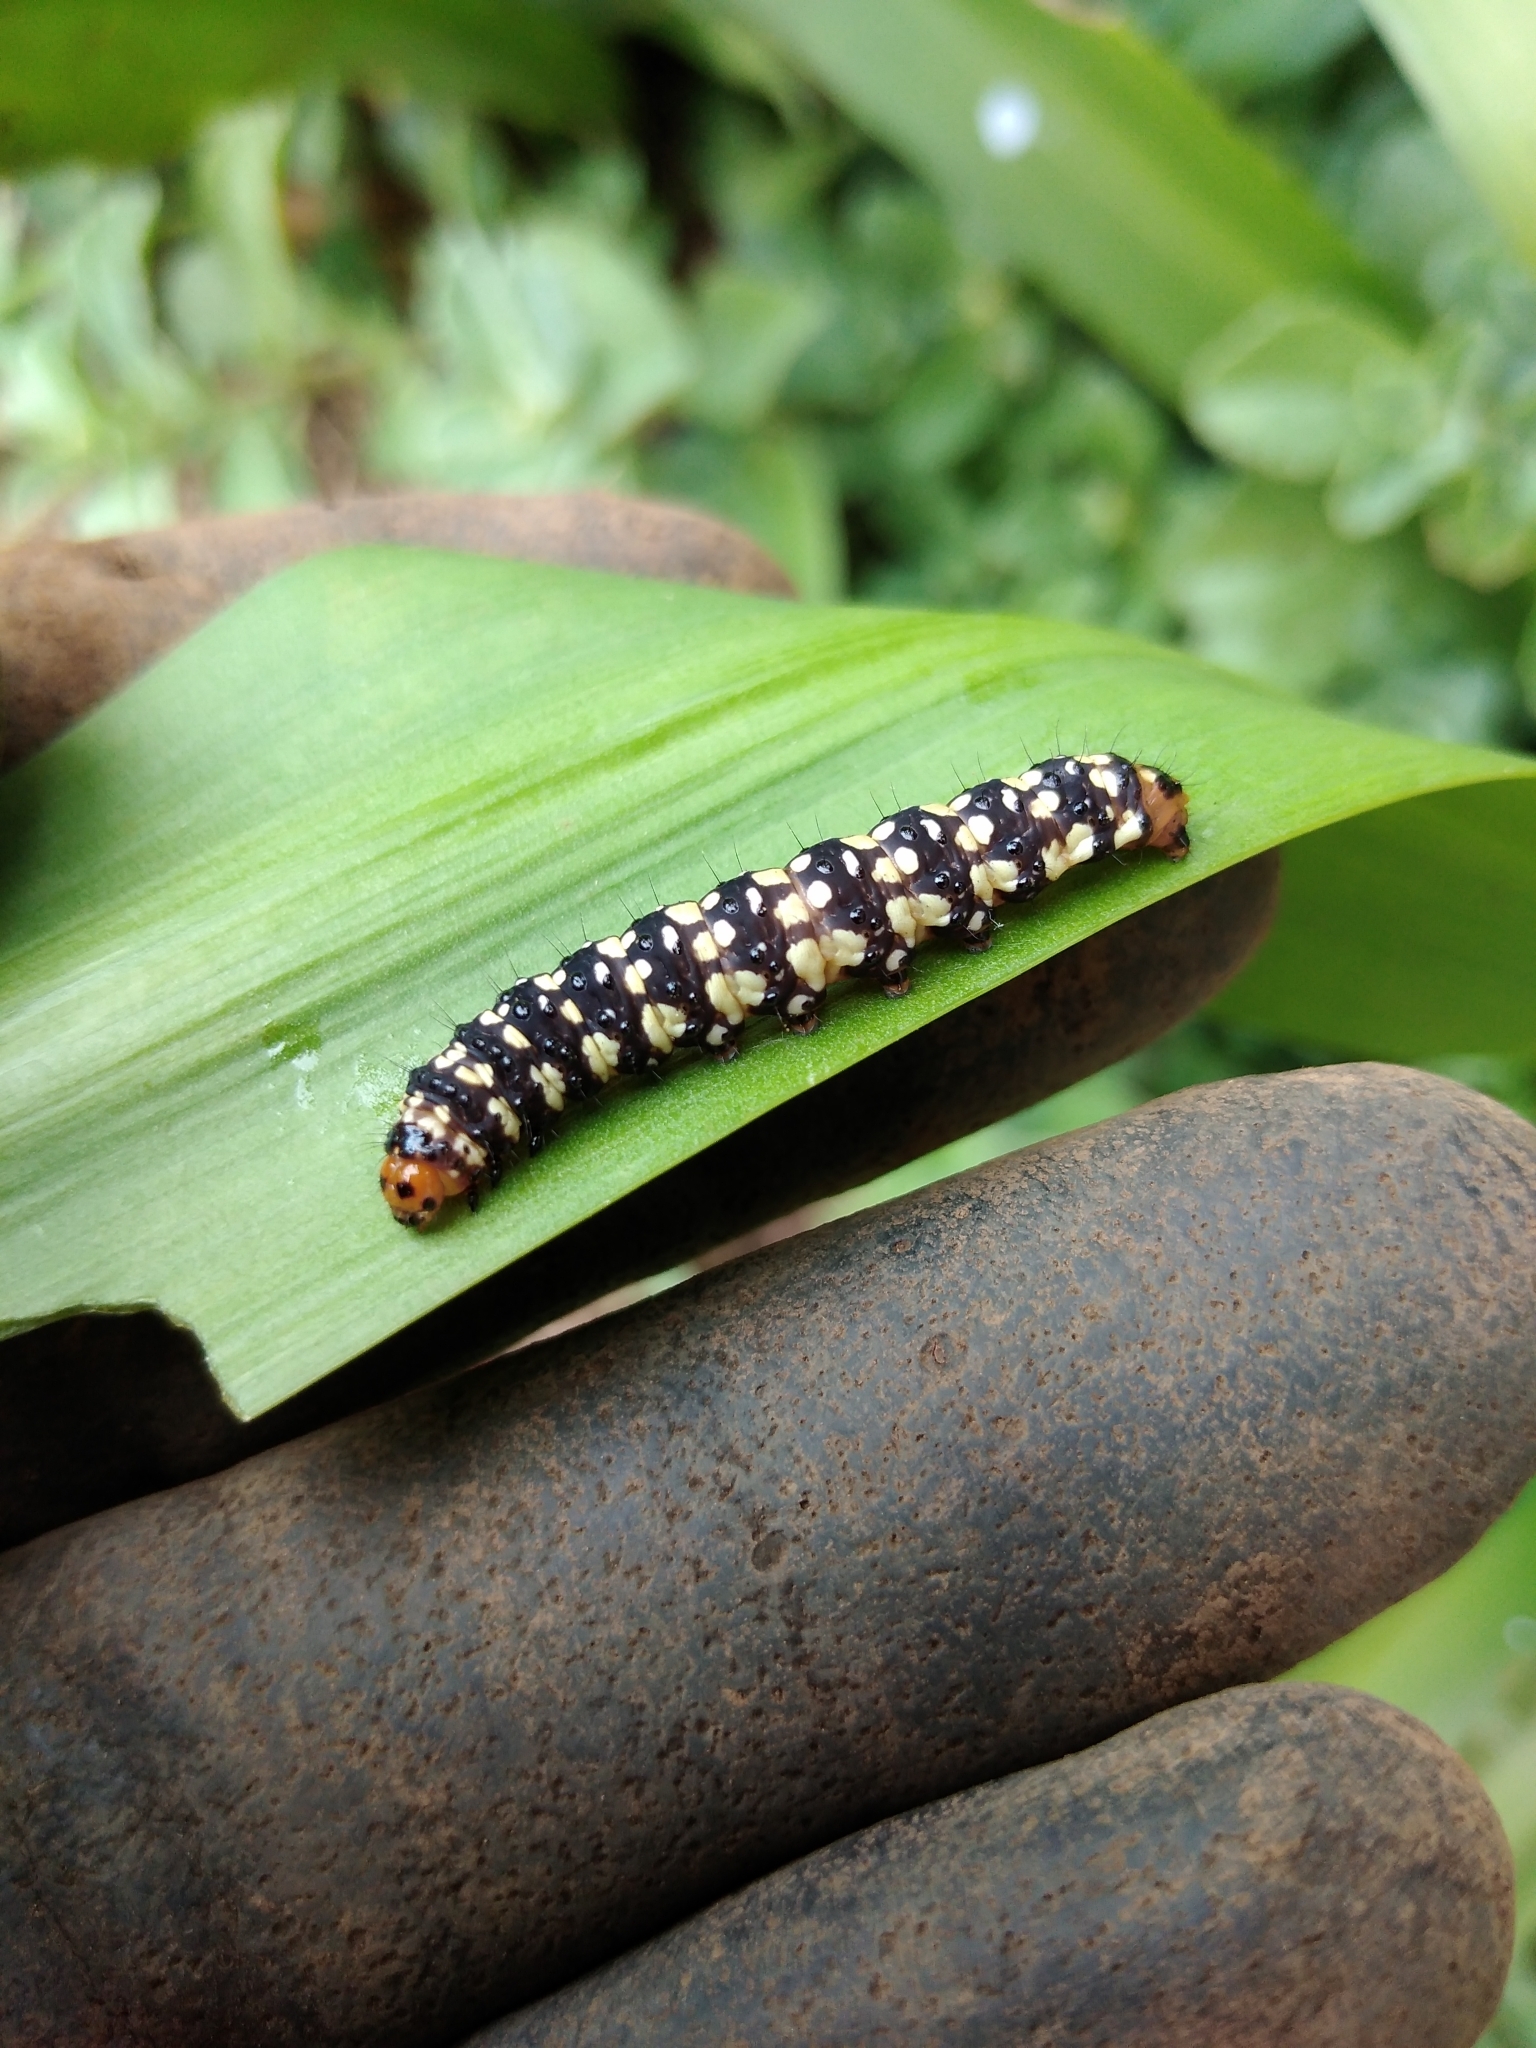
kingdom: Animalia
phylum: Arthropoda
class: Insecta
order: Lepidoptera
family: Noctuidae
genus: Brithys
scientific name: Brithys crini
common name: Kew arches
